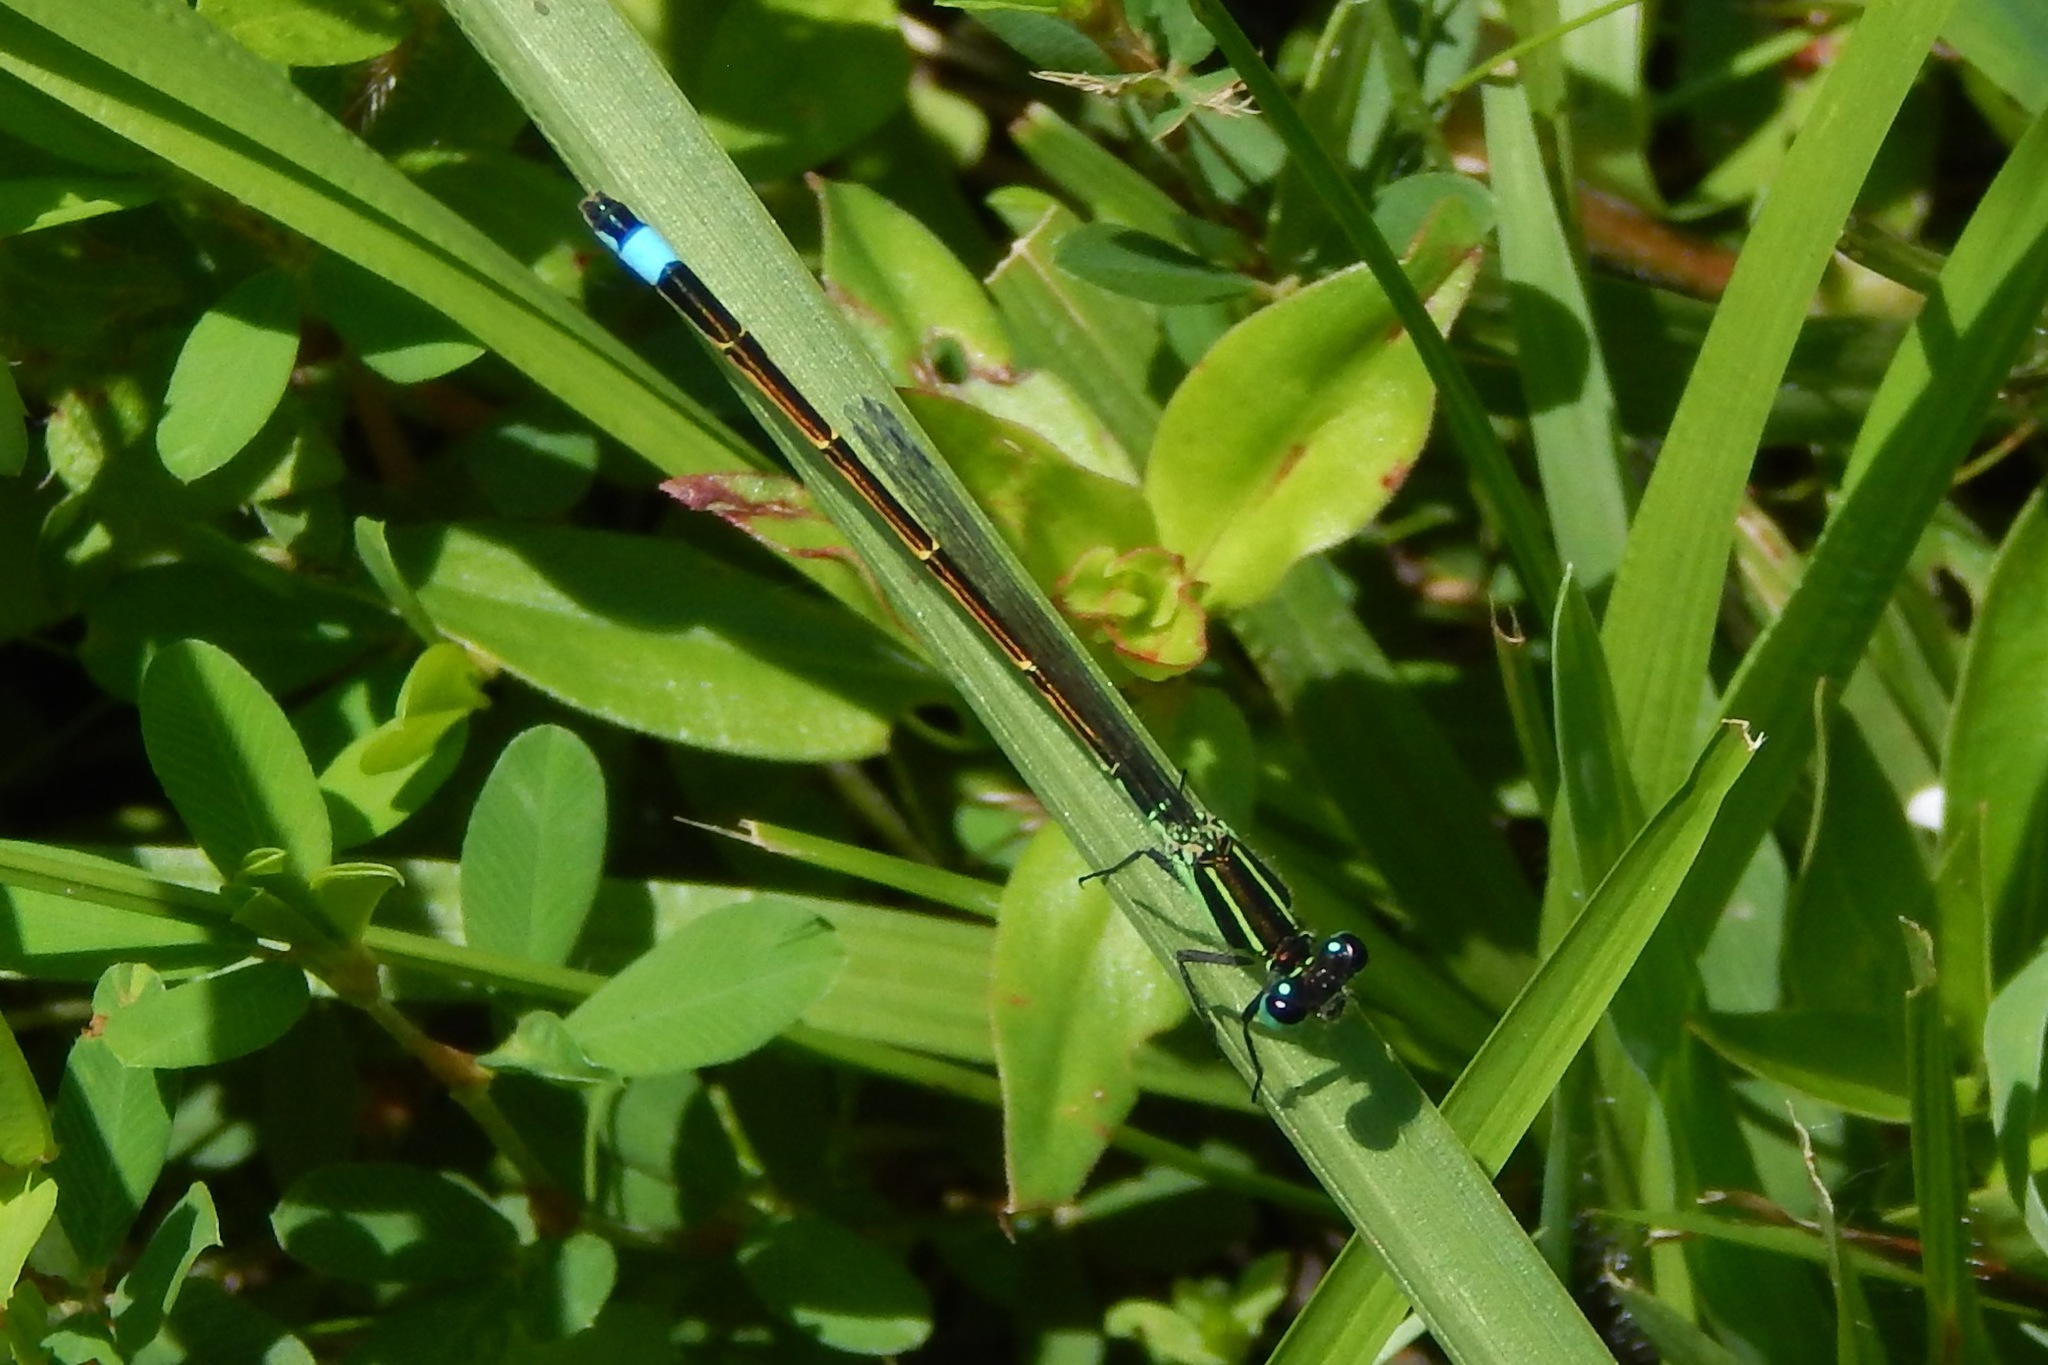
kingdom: Animalia
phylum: Arthropoda
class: Insecta
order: Odonata
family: Coenagrionidae
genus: Ischnura
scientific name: Ischnura ramburii
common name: Rambur's forktail
